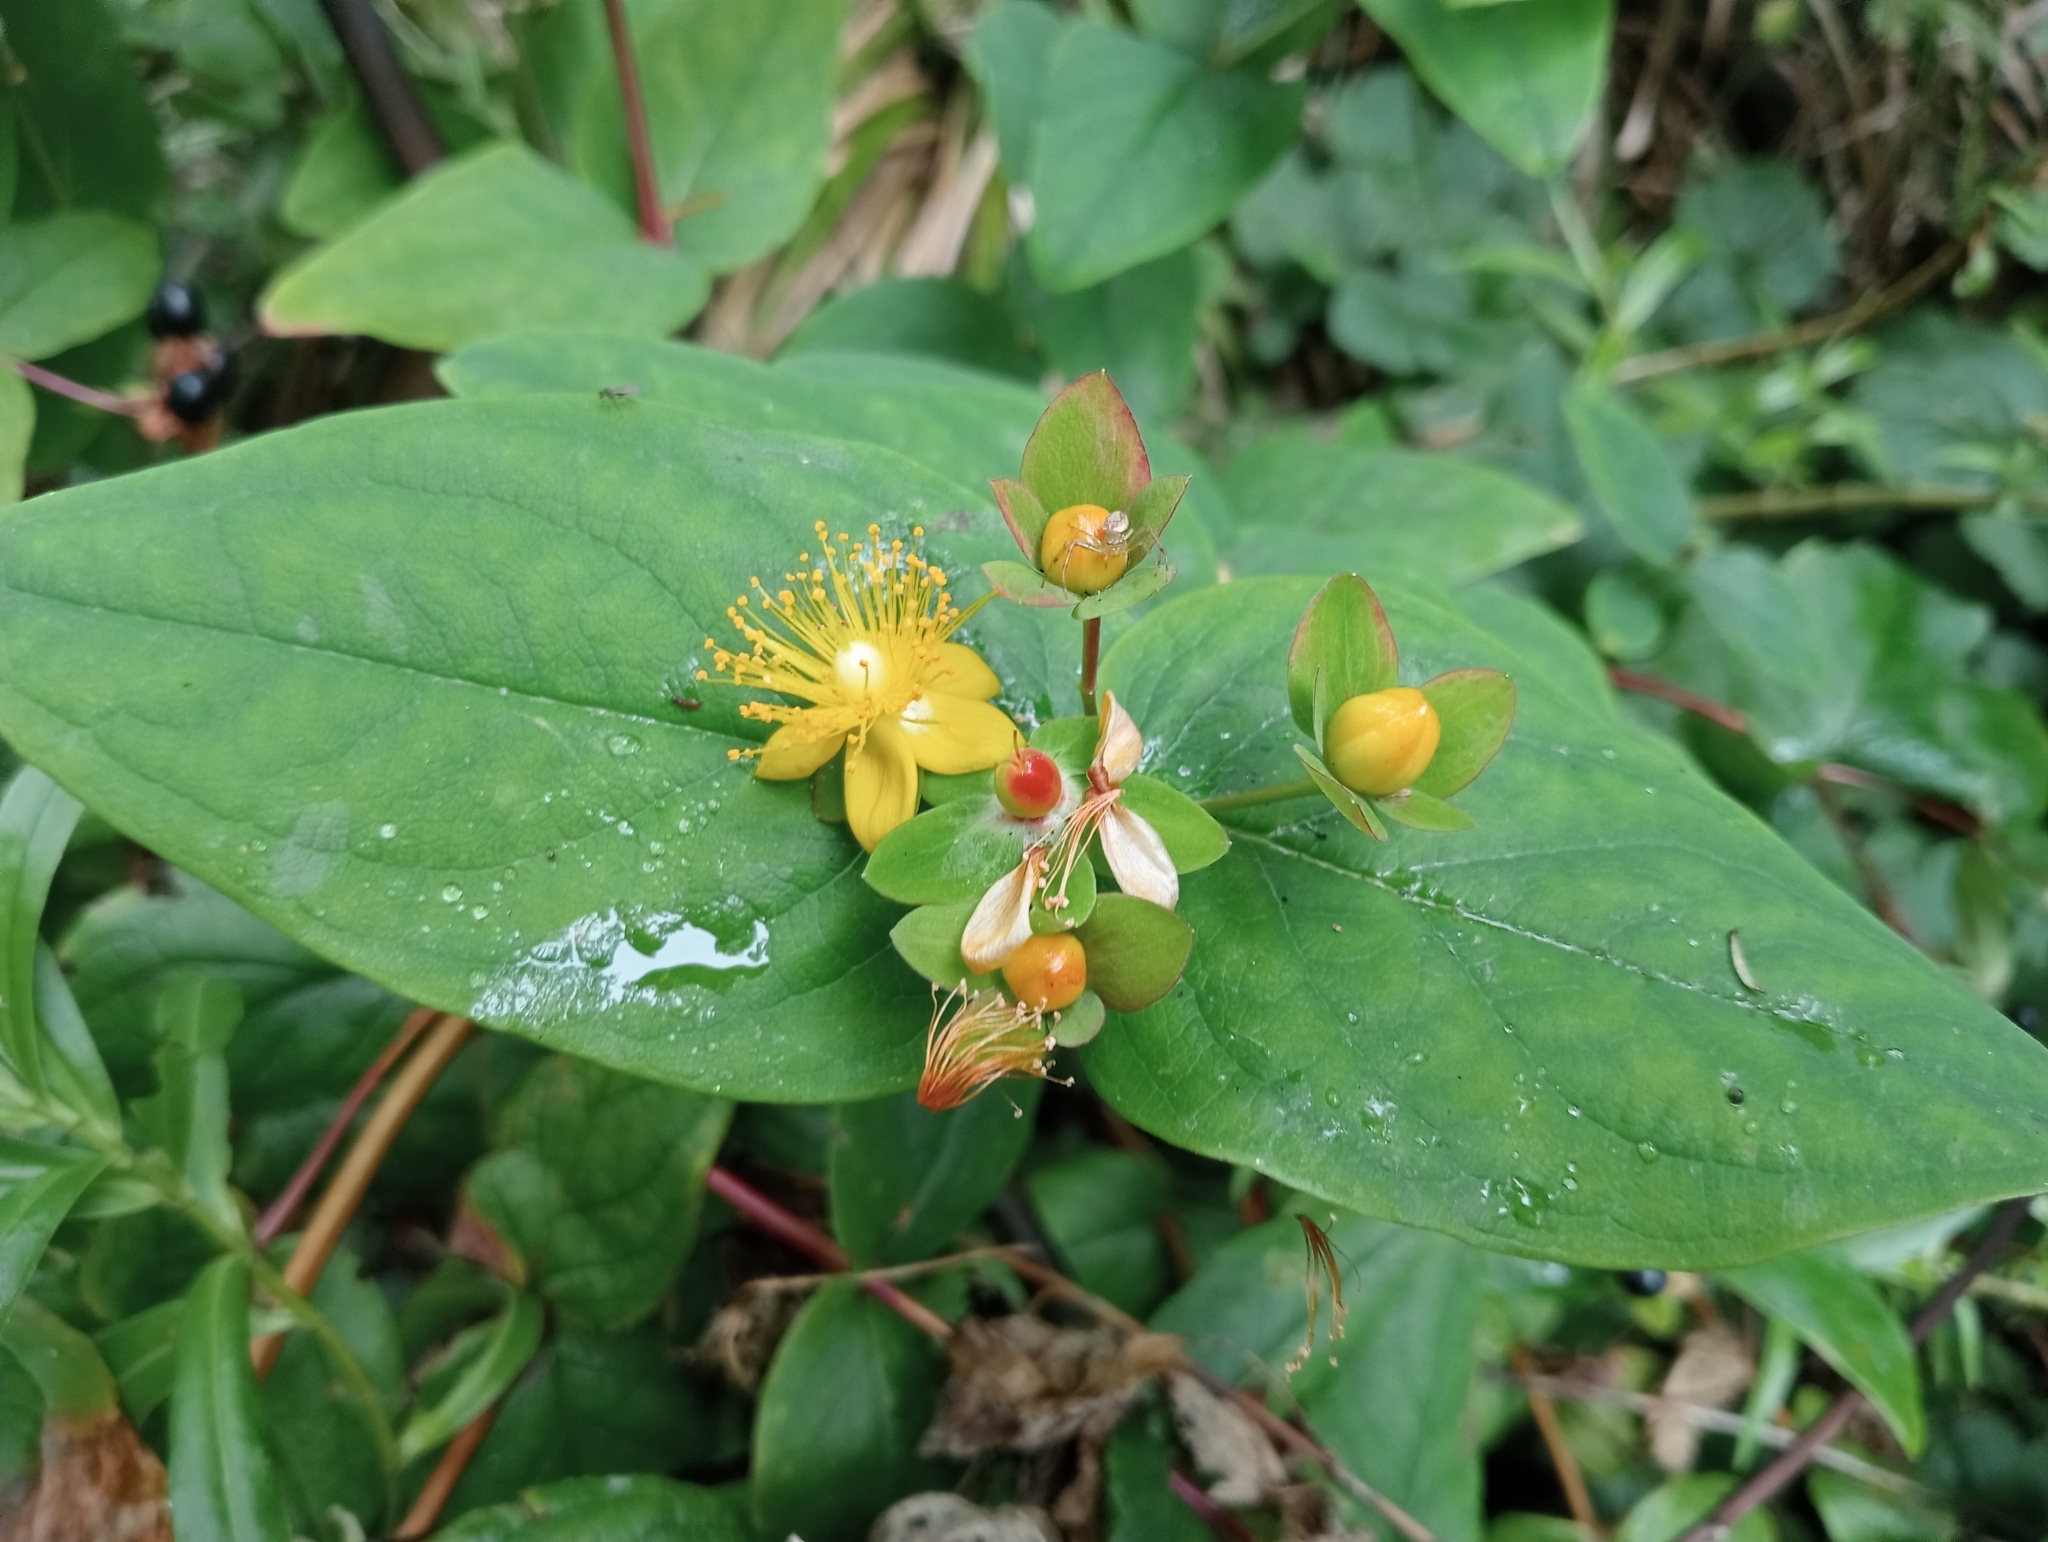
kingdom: Plantae
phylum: Tracheophyta
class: Magnoliopsida
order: Malpighiales
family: Hypericaceae
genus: Hypericum
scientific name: Hypericum androsaemum
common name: Sweet-amber
